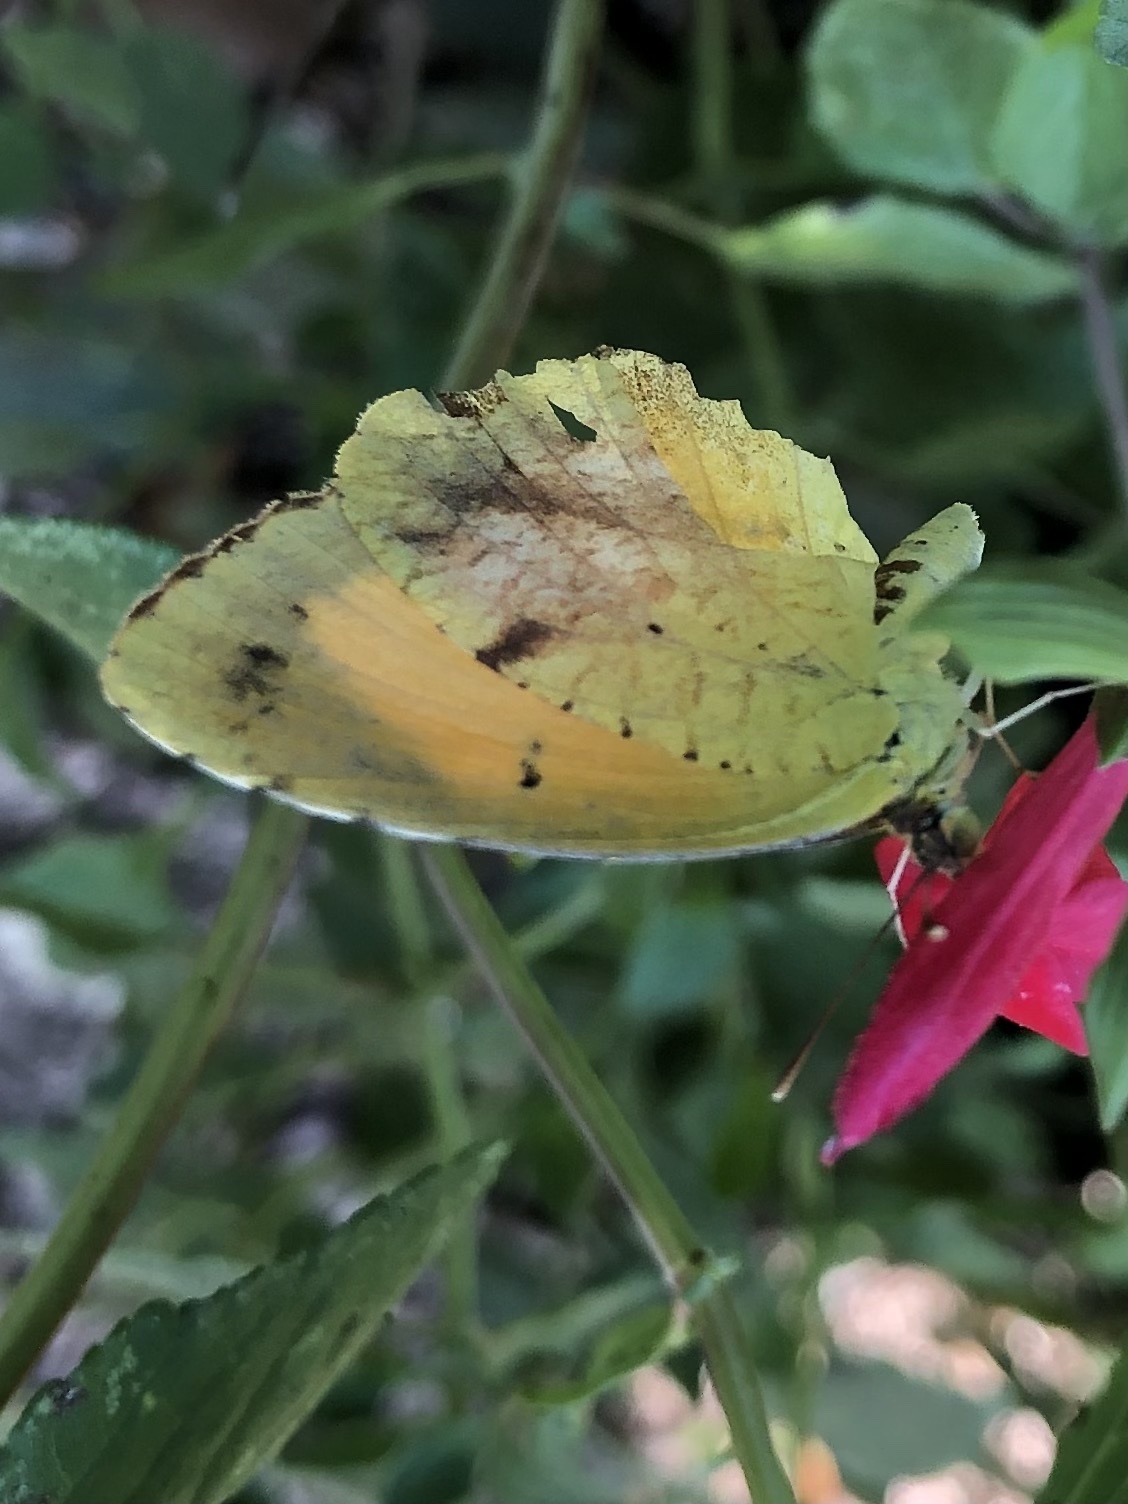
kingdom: Animalia
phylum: Arthropoda
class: Insecta
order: Lepidoptera
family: Pieridae
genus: Abaeis
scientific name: Abaeis nicippe
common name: Sleepy orange
